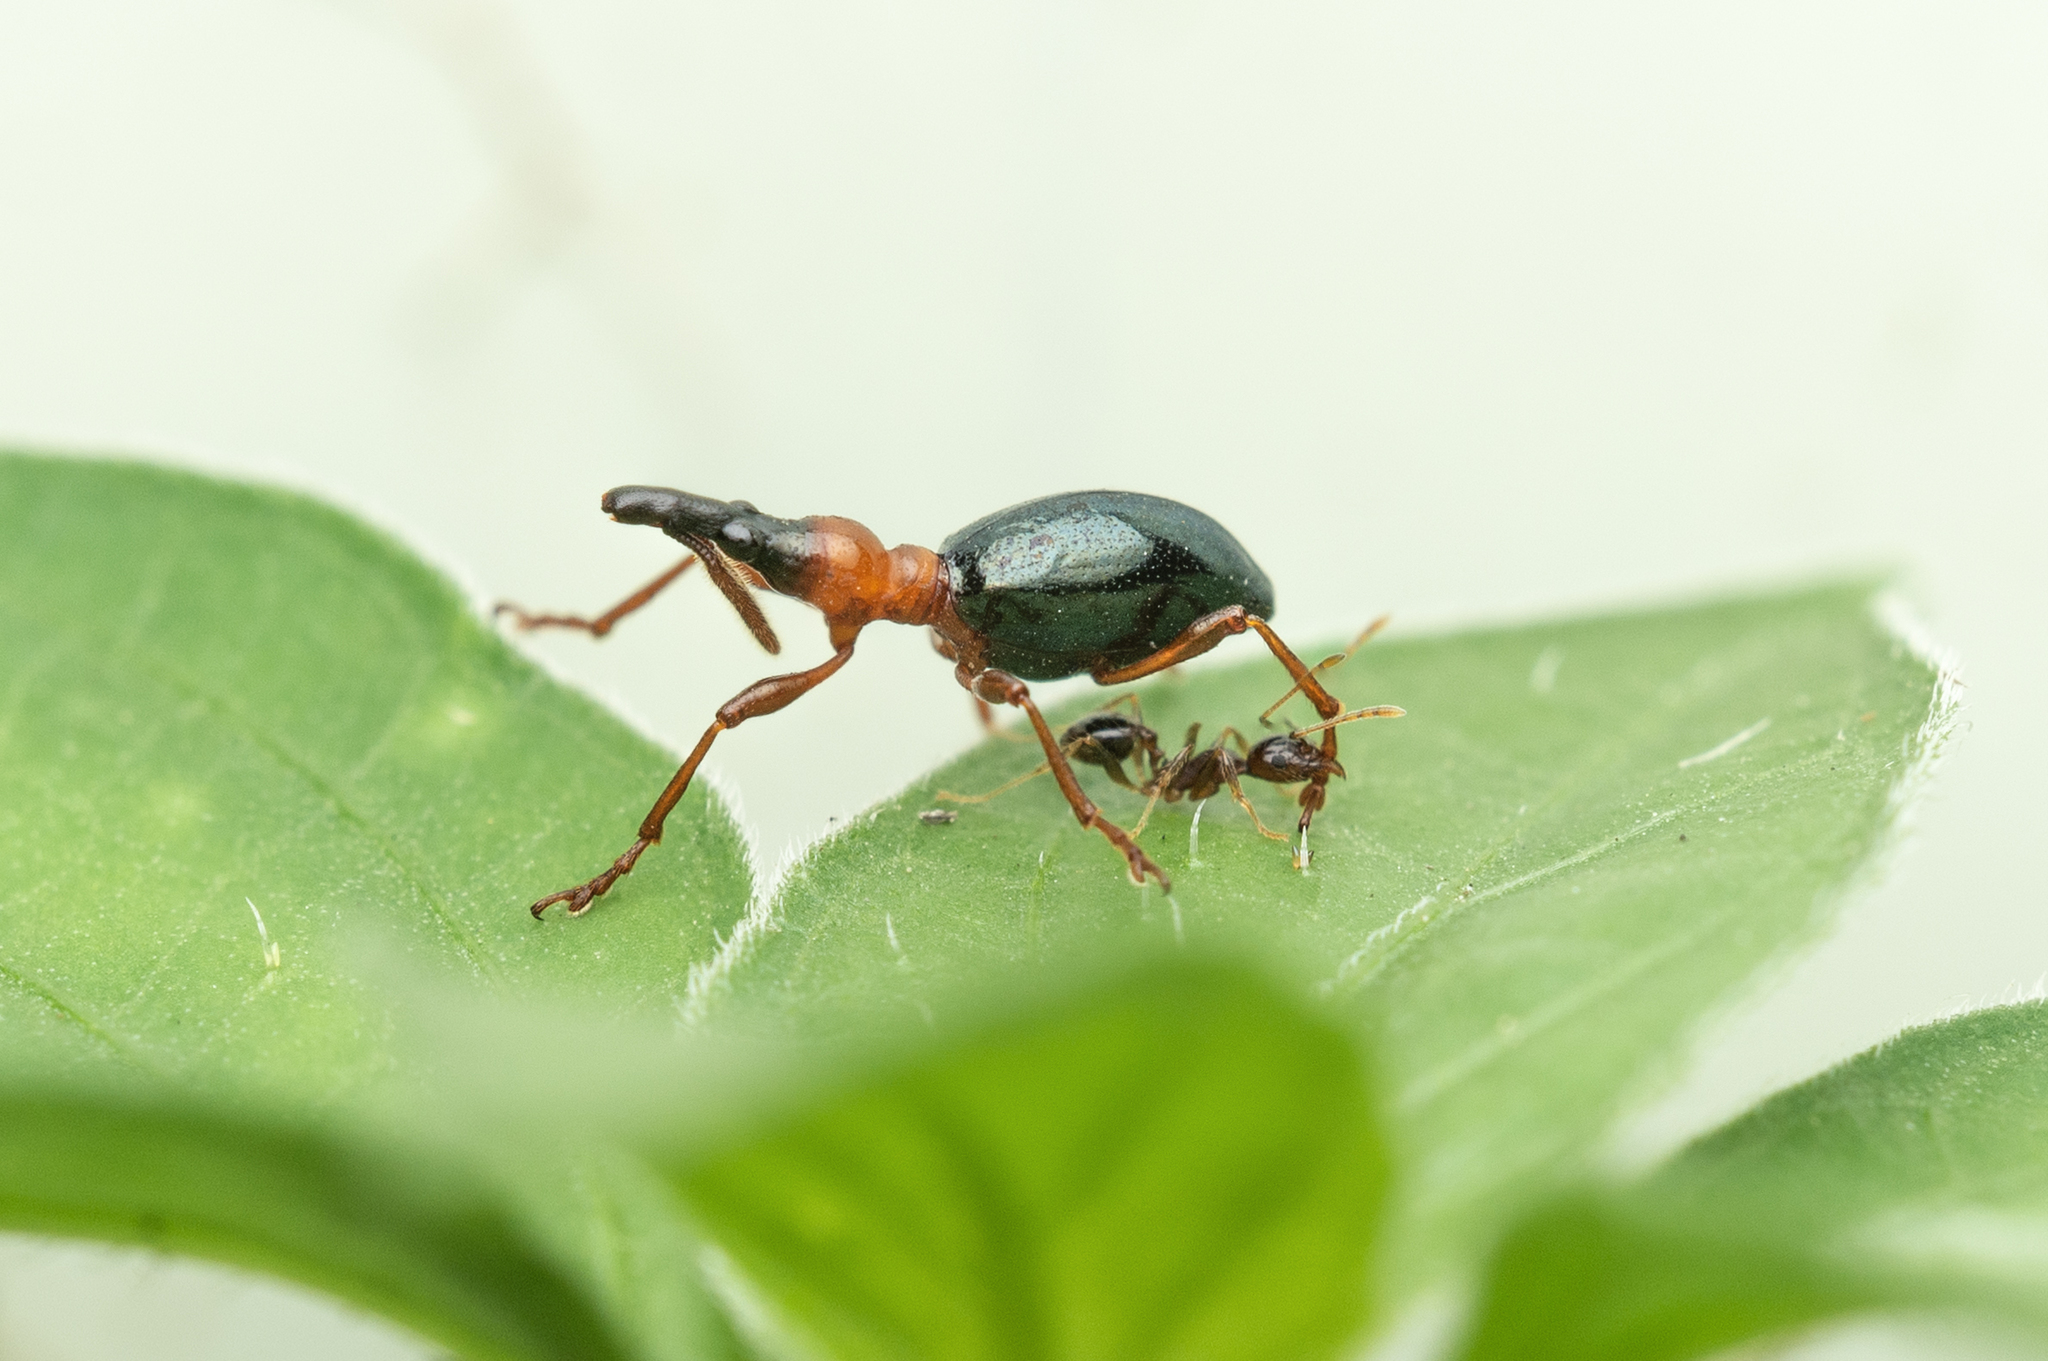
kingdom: Animalia
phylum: Arthropoda
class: Insecta
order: Coleoptera
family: Brentidae
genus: Cylas
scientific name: Cylas formicarius
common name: Sweetpotato weevil
